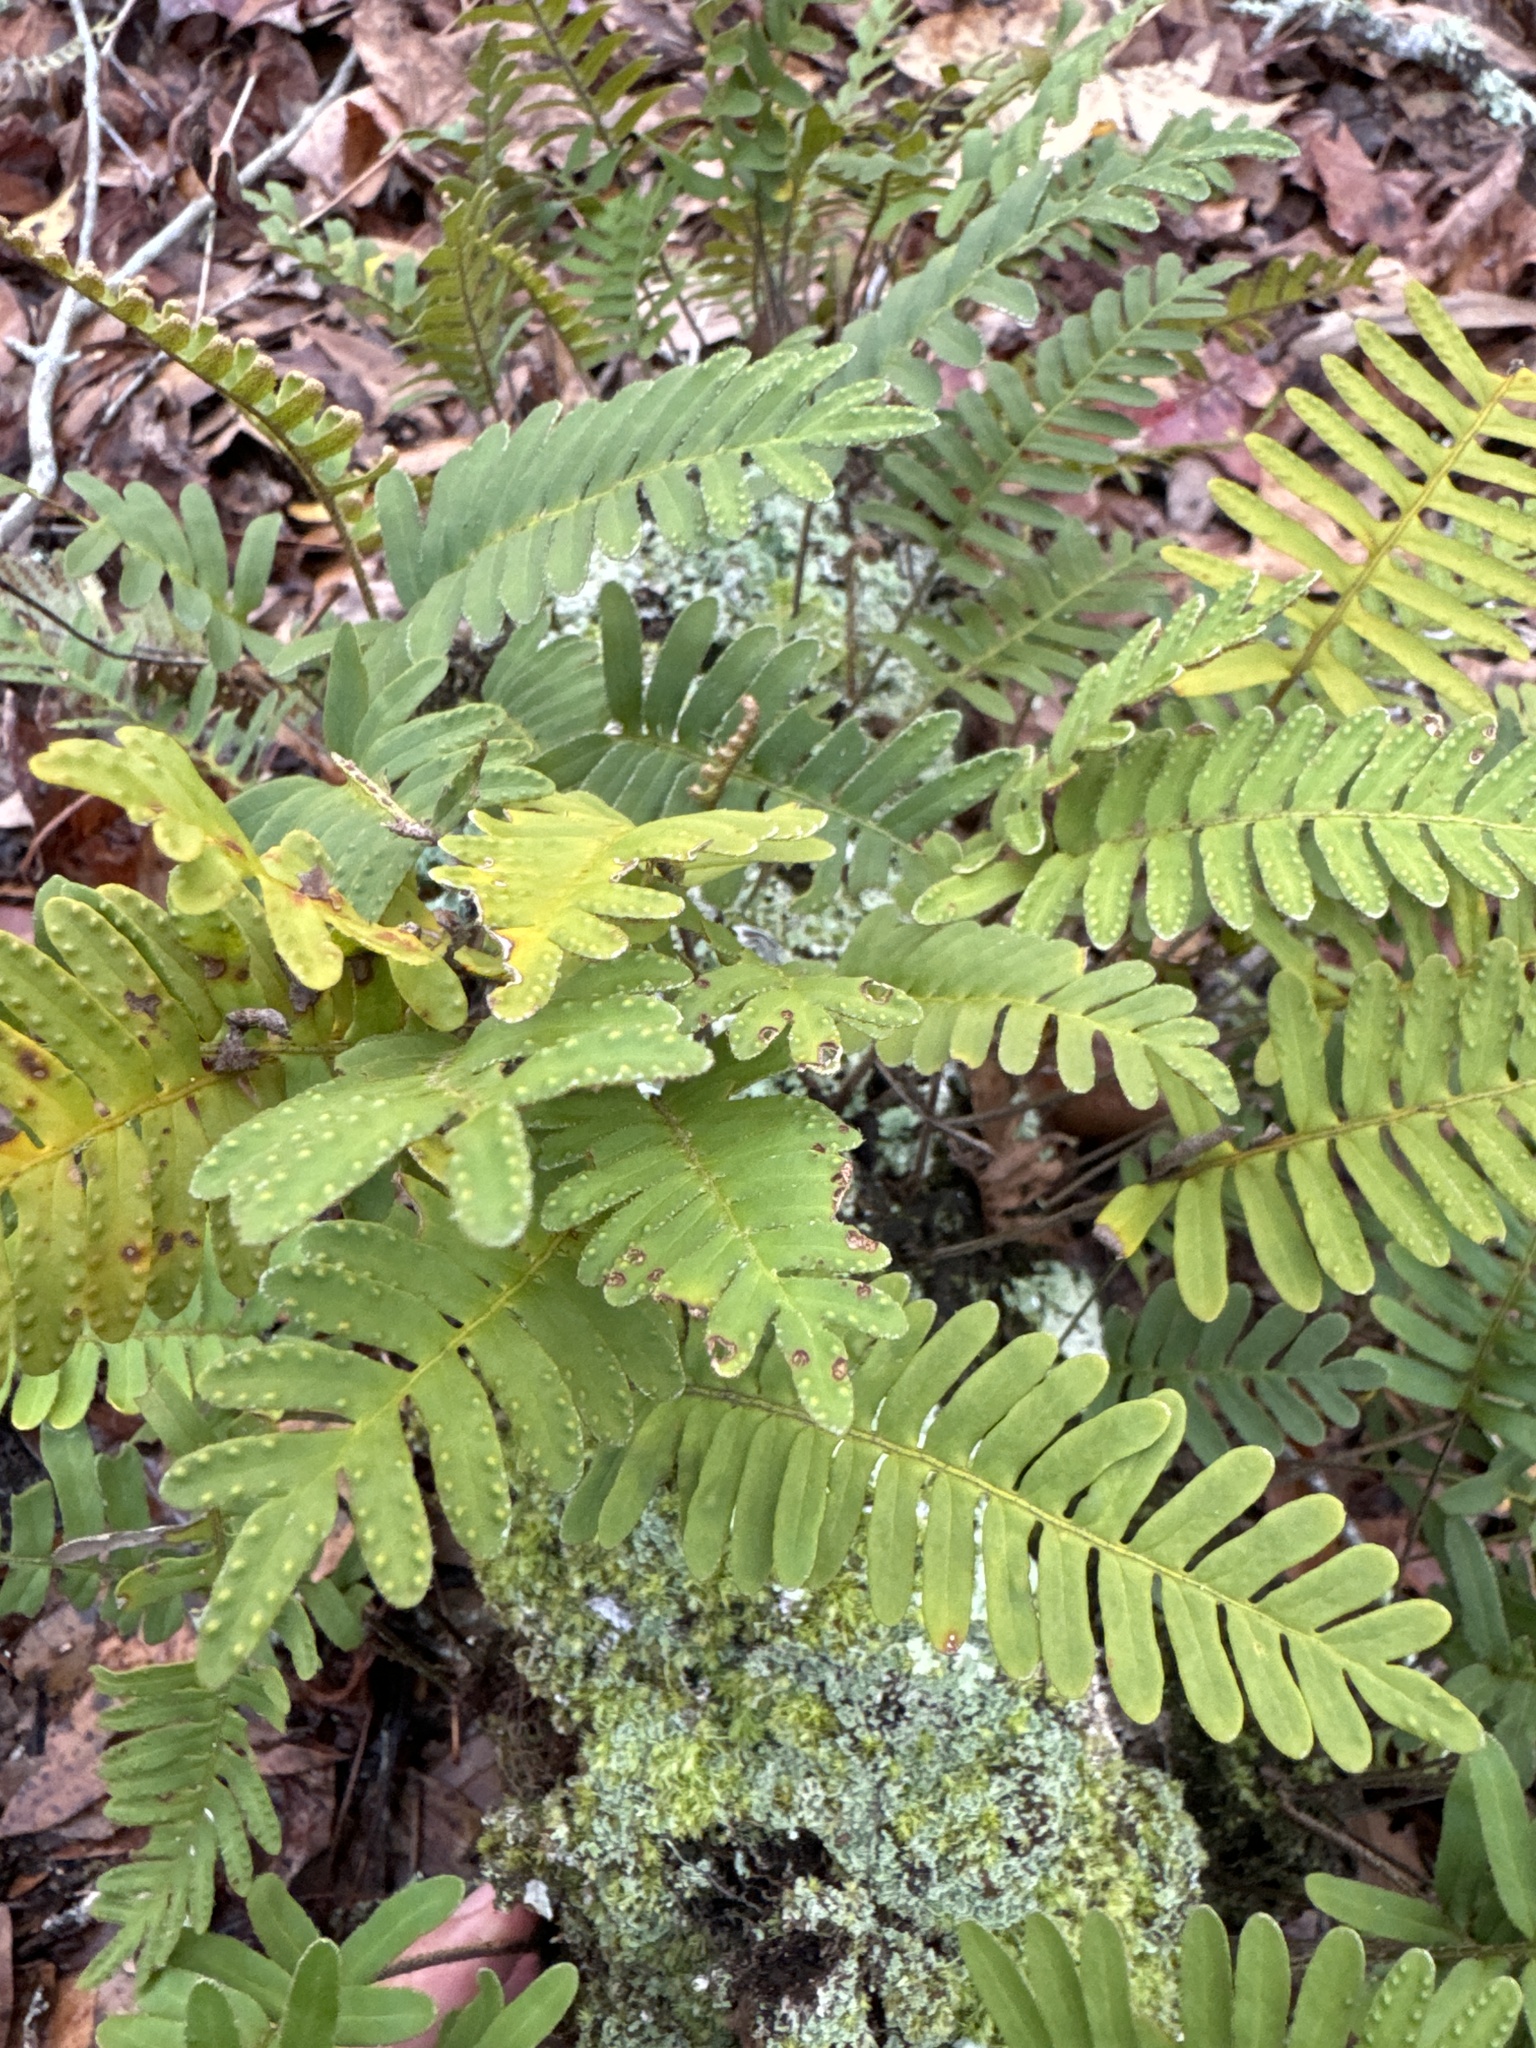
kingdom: Plantae
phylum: Tracheophyta
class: Polypodiopsida
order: Polypodiales
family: Polypodiaceae
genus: Pleopeltis
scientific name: Pleopeltis michauxiana
